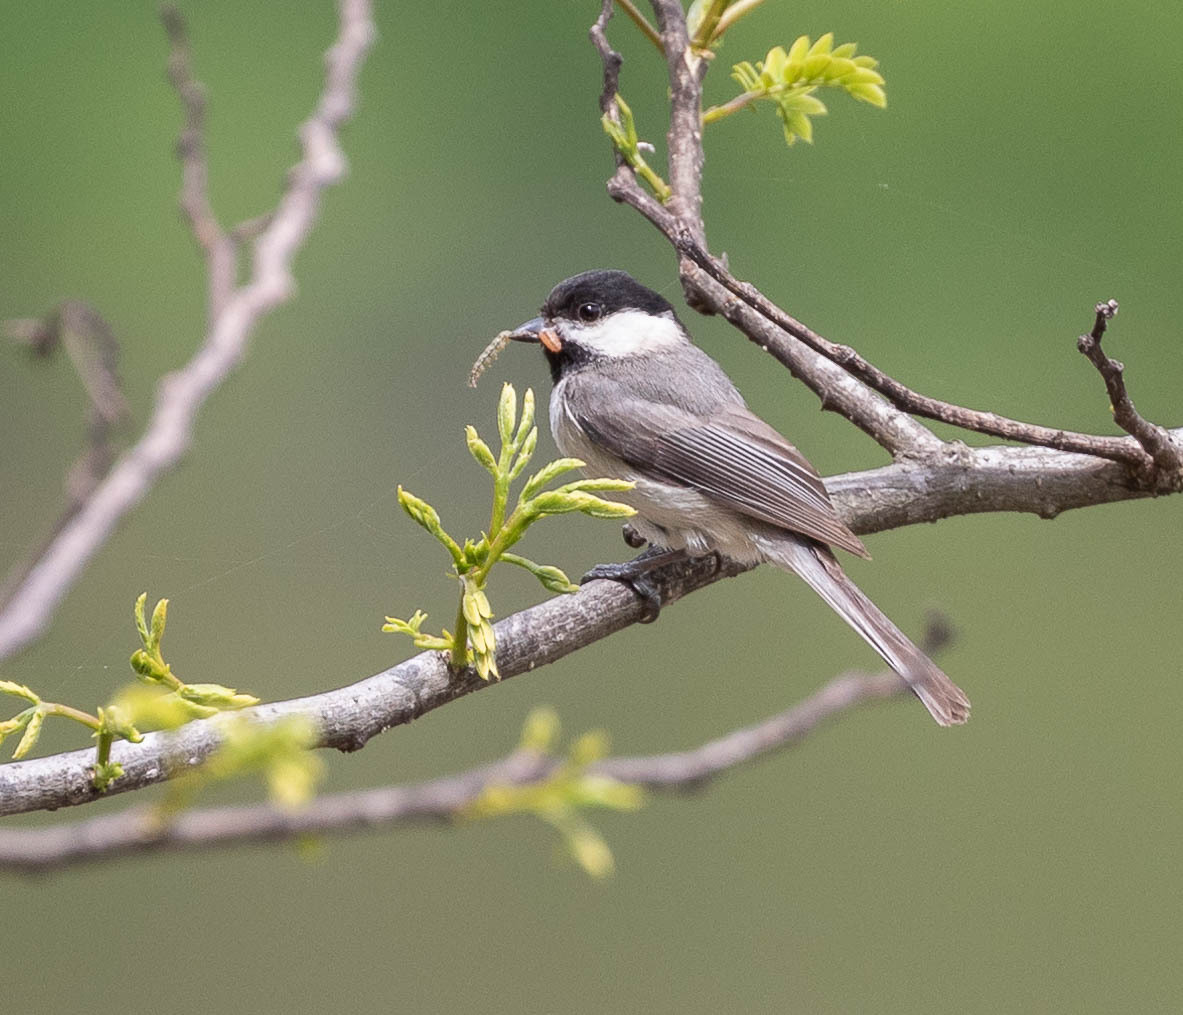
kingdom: Animalia
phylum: Chordata
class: Aves
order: Passeriformes
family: Paridae
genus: Poecile
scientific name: Poecile carolinensis
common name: Carolina chickadee
